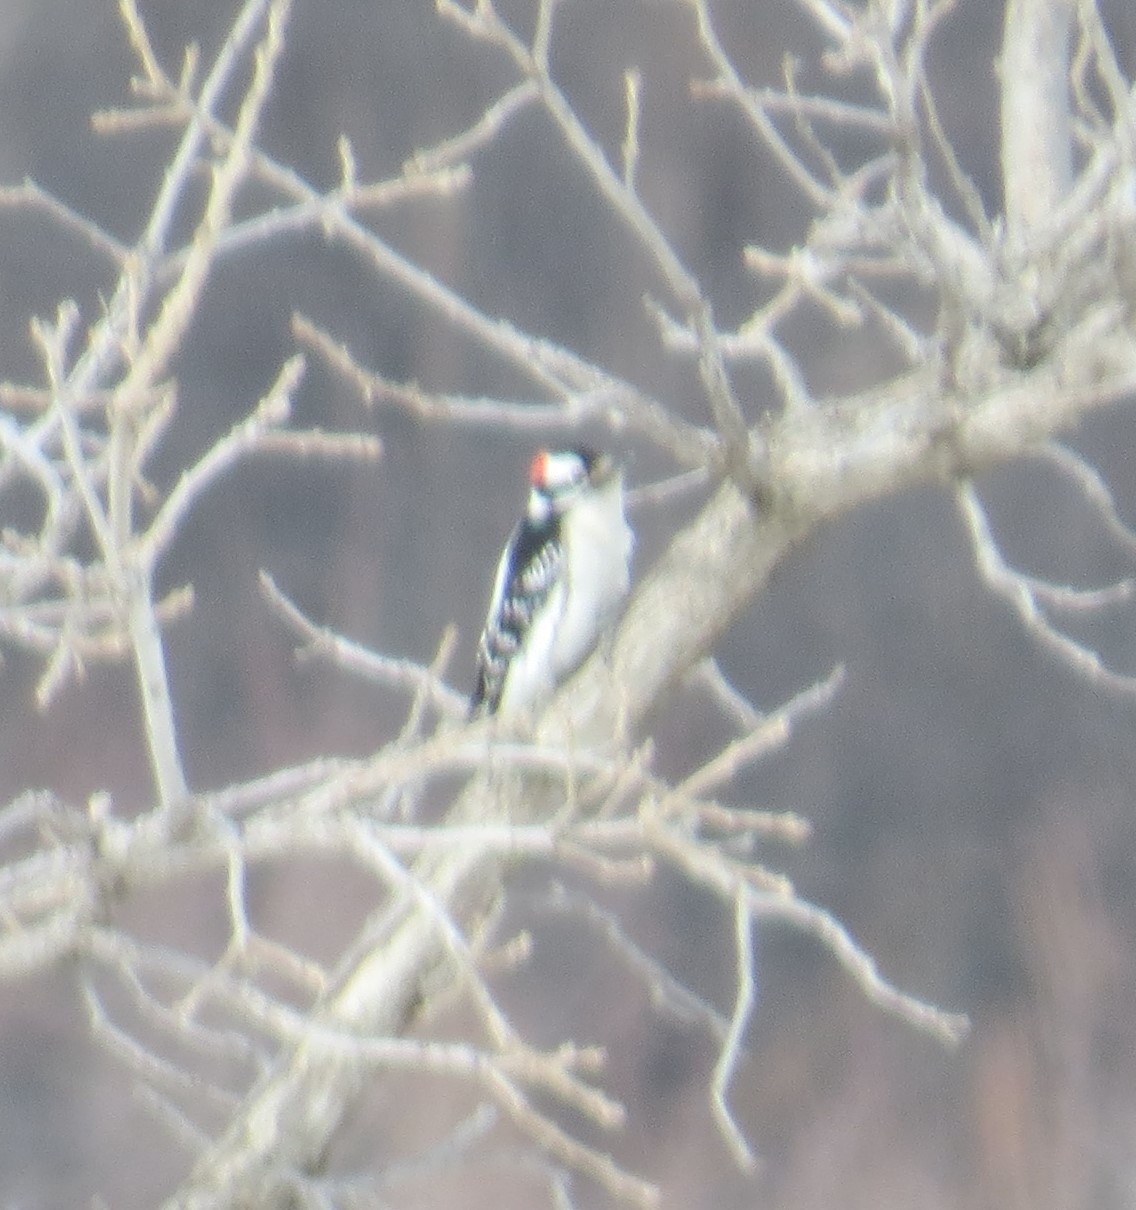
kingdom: Animalia
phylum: Chordata
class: Aves
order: Piciformes
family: Picidae
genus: Dryobates
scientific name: Dryobates pubescens
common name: Downy woodpecker
